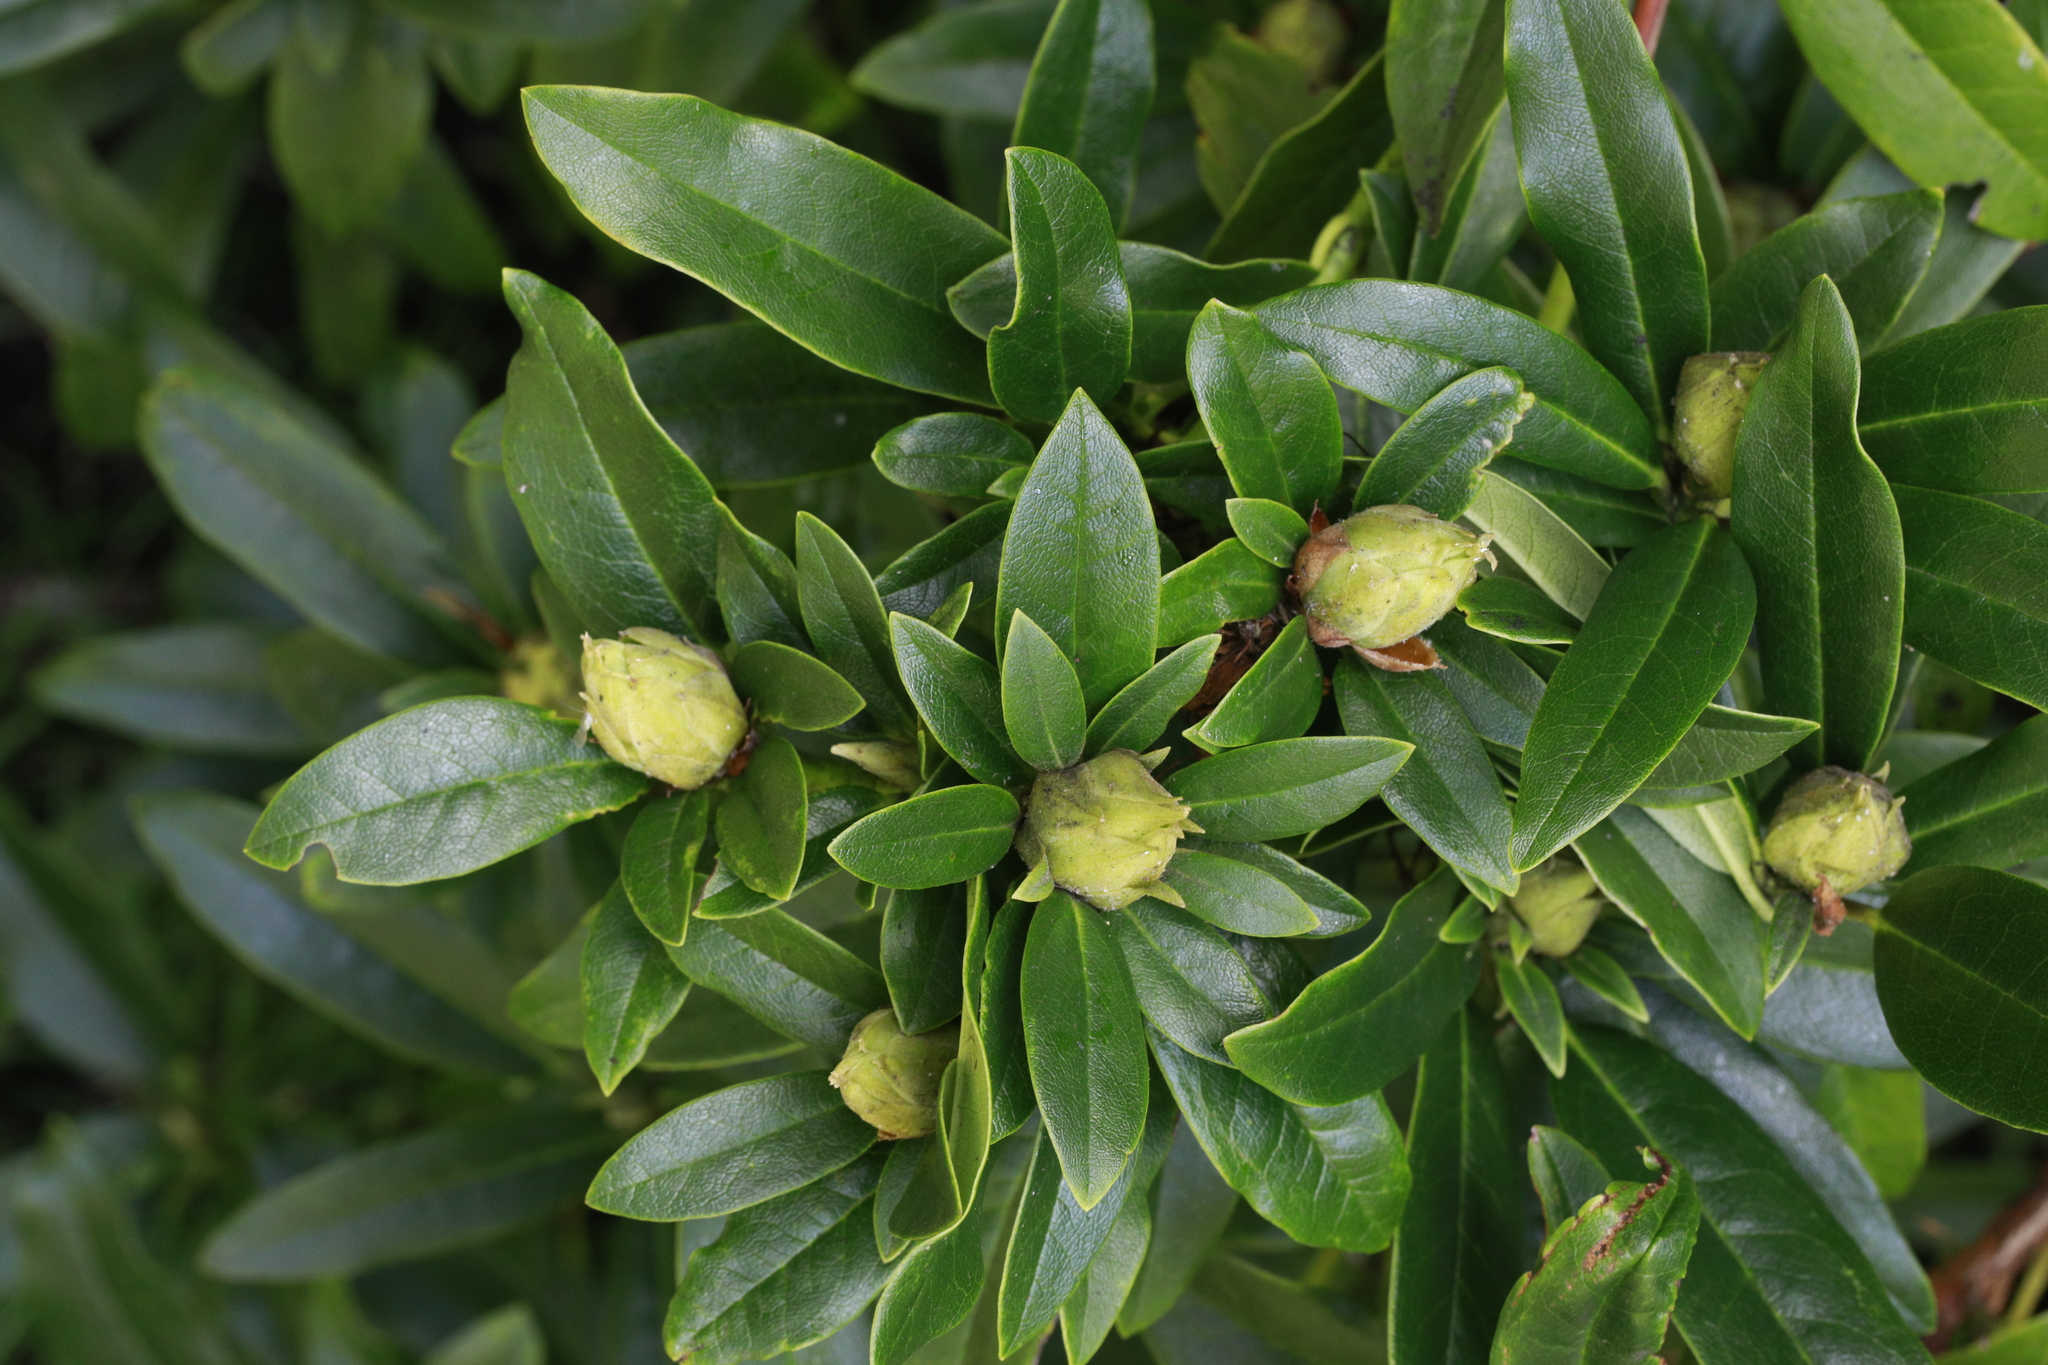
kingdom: Plantae
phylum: Tracheophyta
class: Magnoliopsida
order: Ericales
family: Ericaceae
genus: Rhododendron
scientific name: Rhododendron ponticum
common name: Rhododendron
